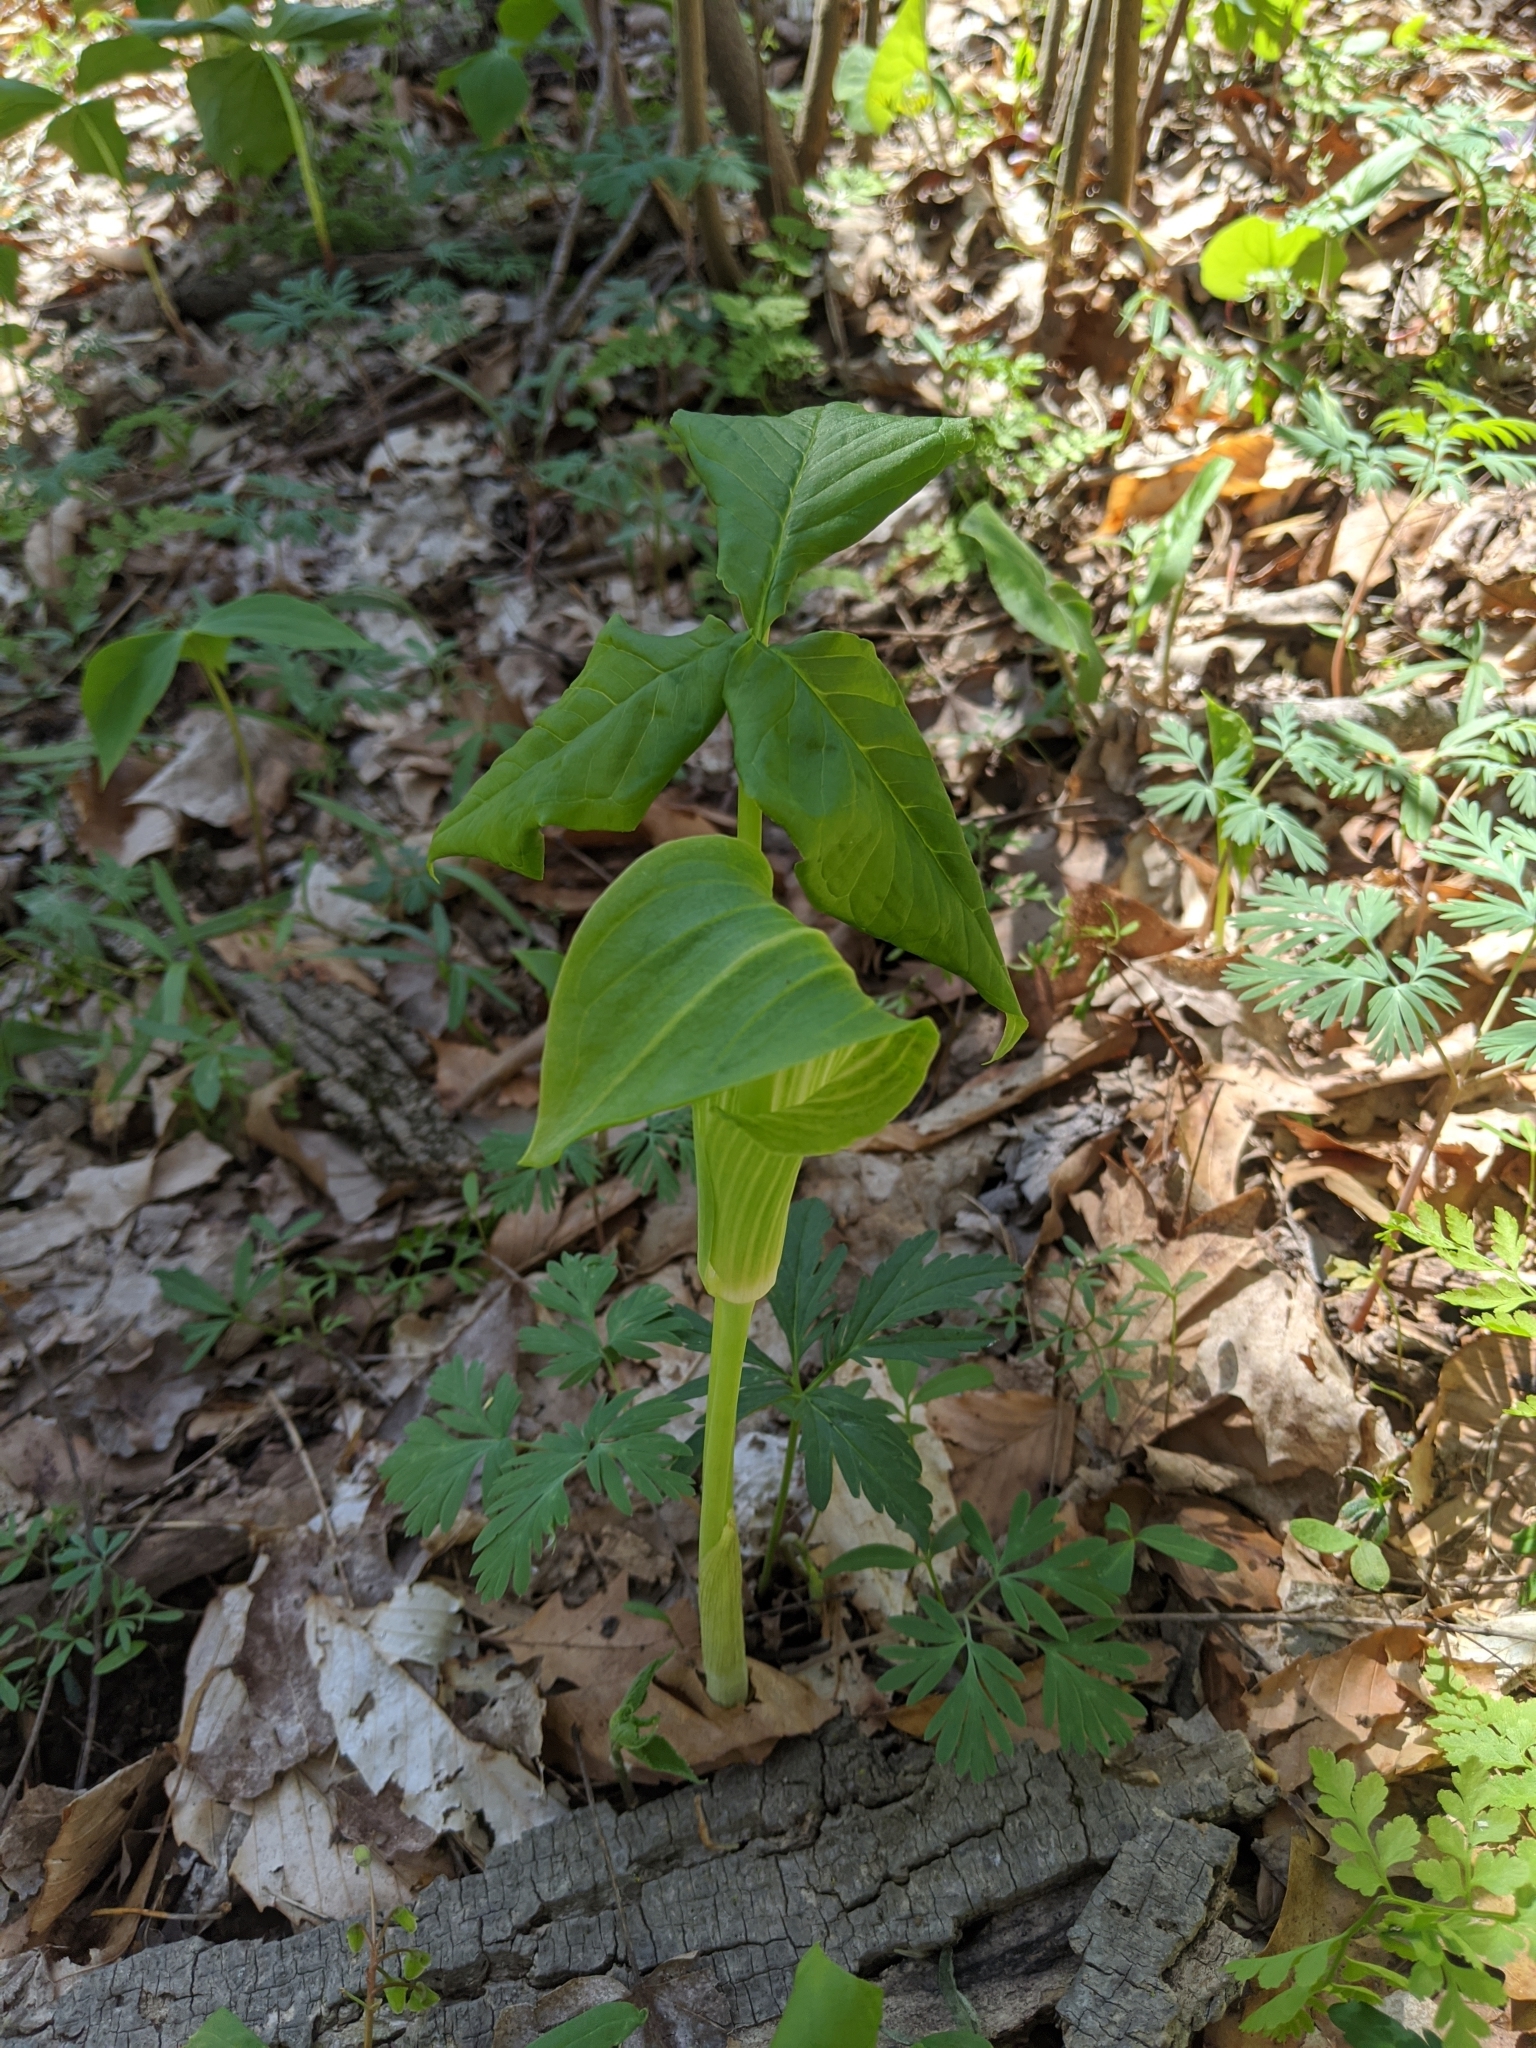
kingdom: Plantae
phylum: Tracheophyta
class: Liliopsida
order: Alismatales
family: Araceae
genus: Arisaema
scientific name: Arisaema triphyllum
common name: Jack-in-the-pulpit
